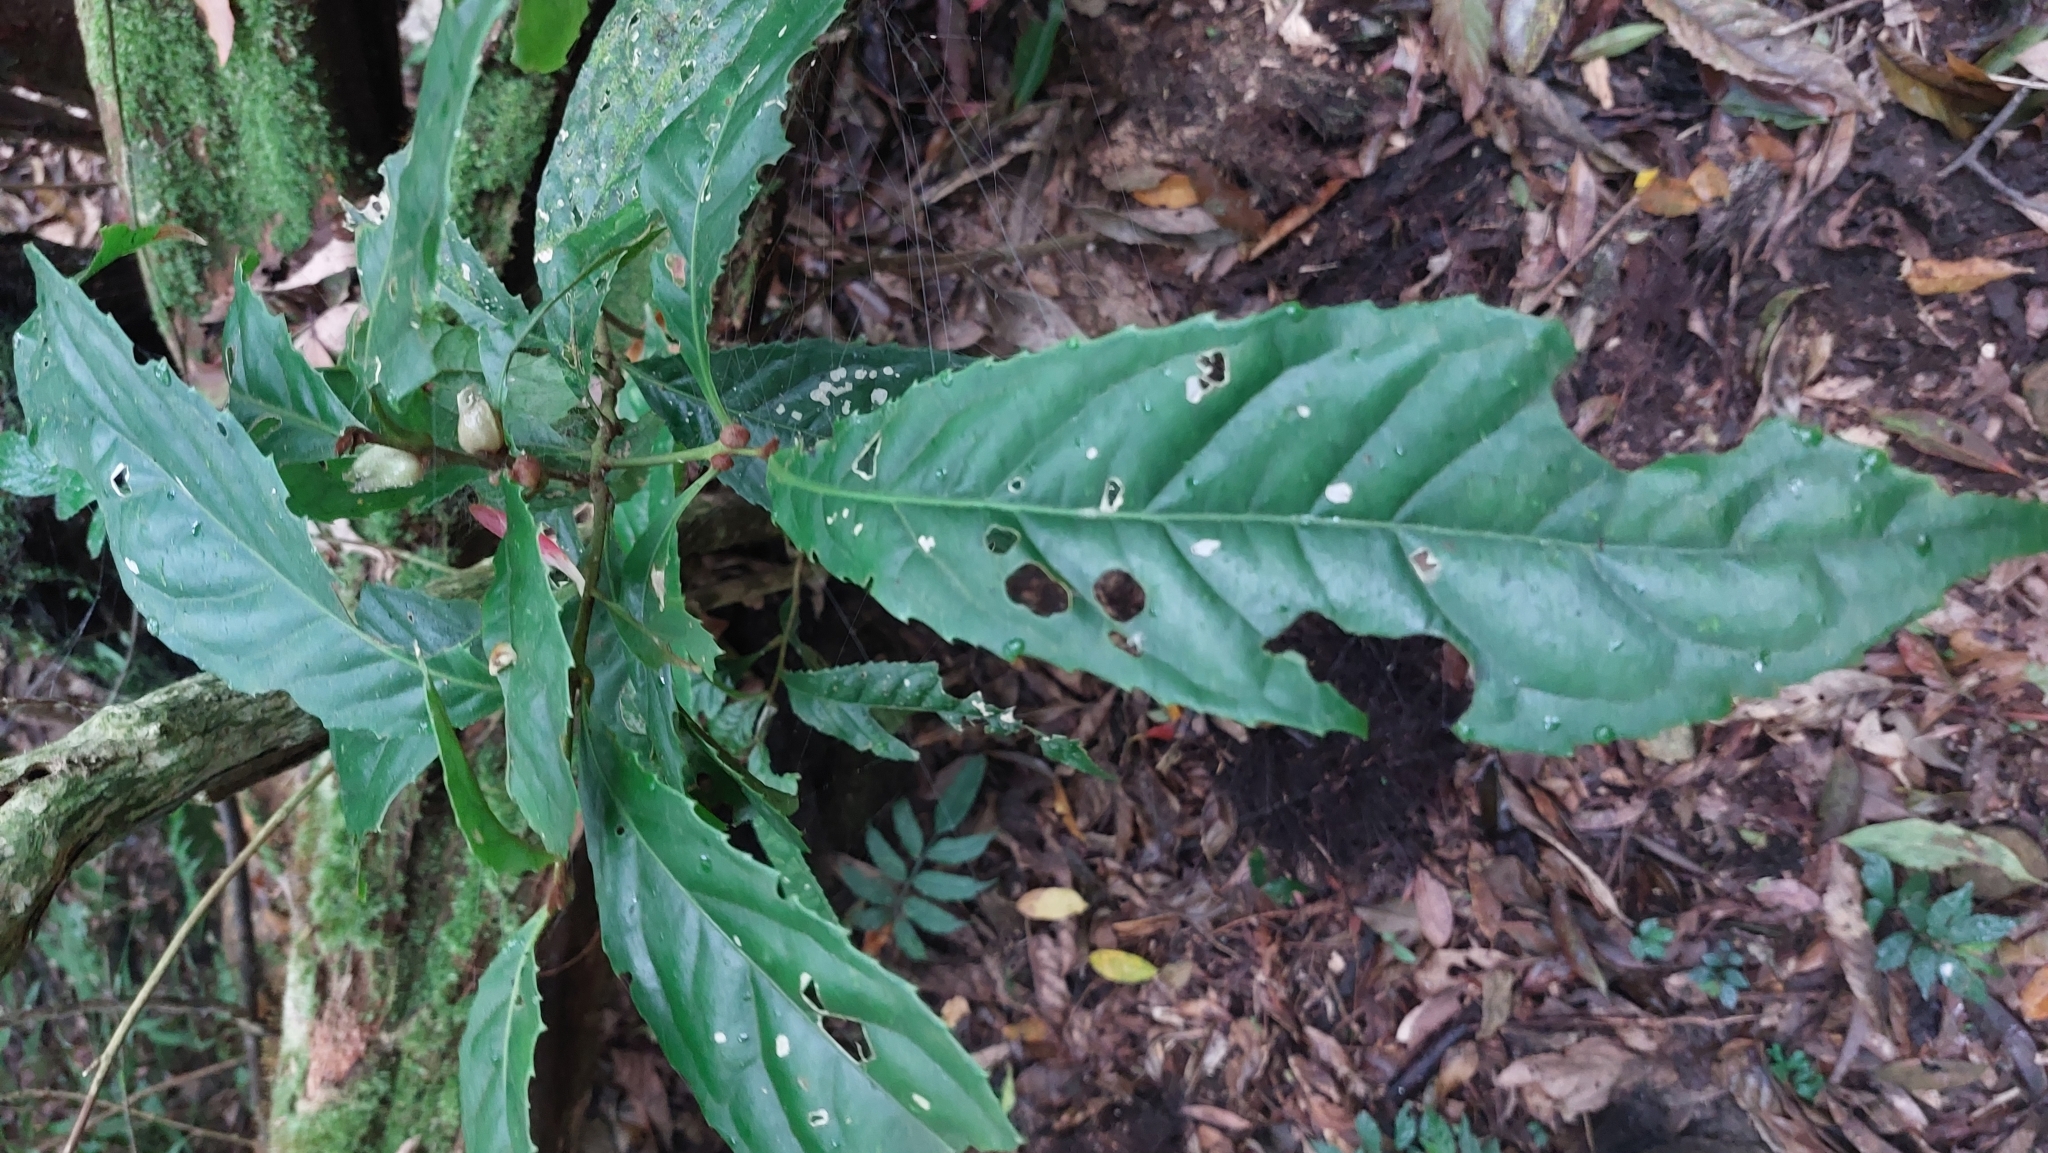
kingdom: Plantae
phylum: Tracheophyta
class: Magnoliopsida
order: Proteales
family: Proteaceae
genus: Helicia
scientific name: Helicia formosana
